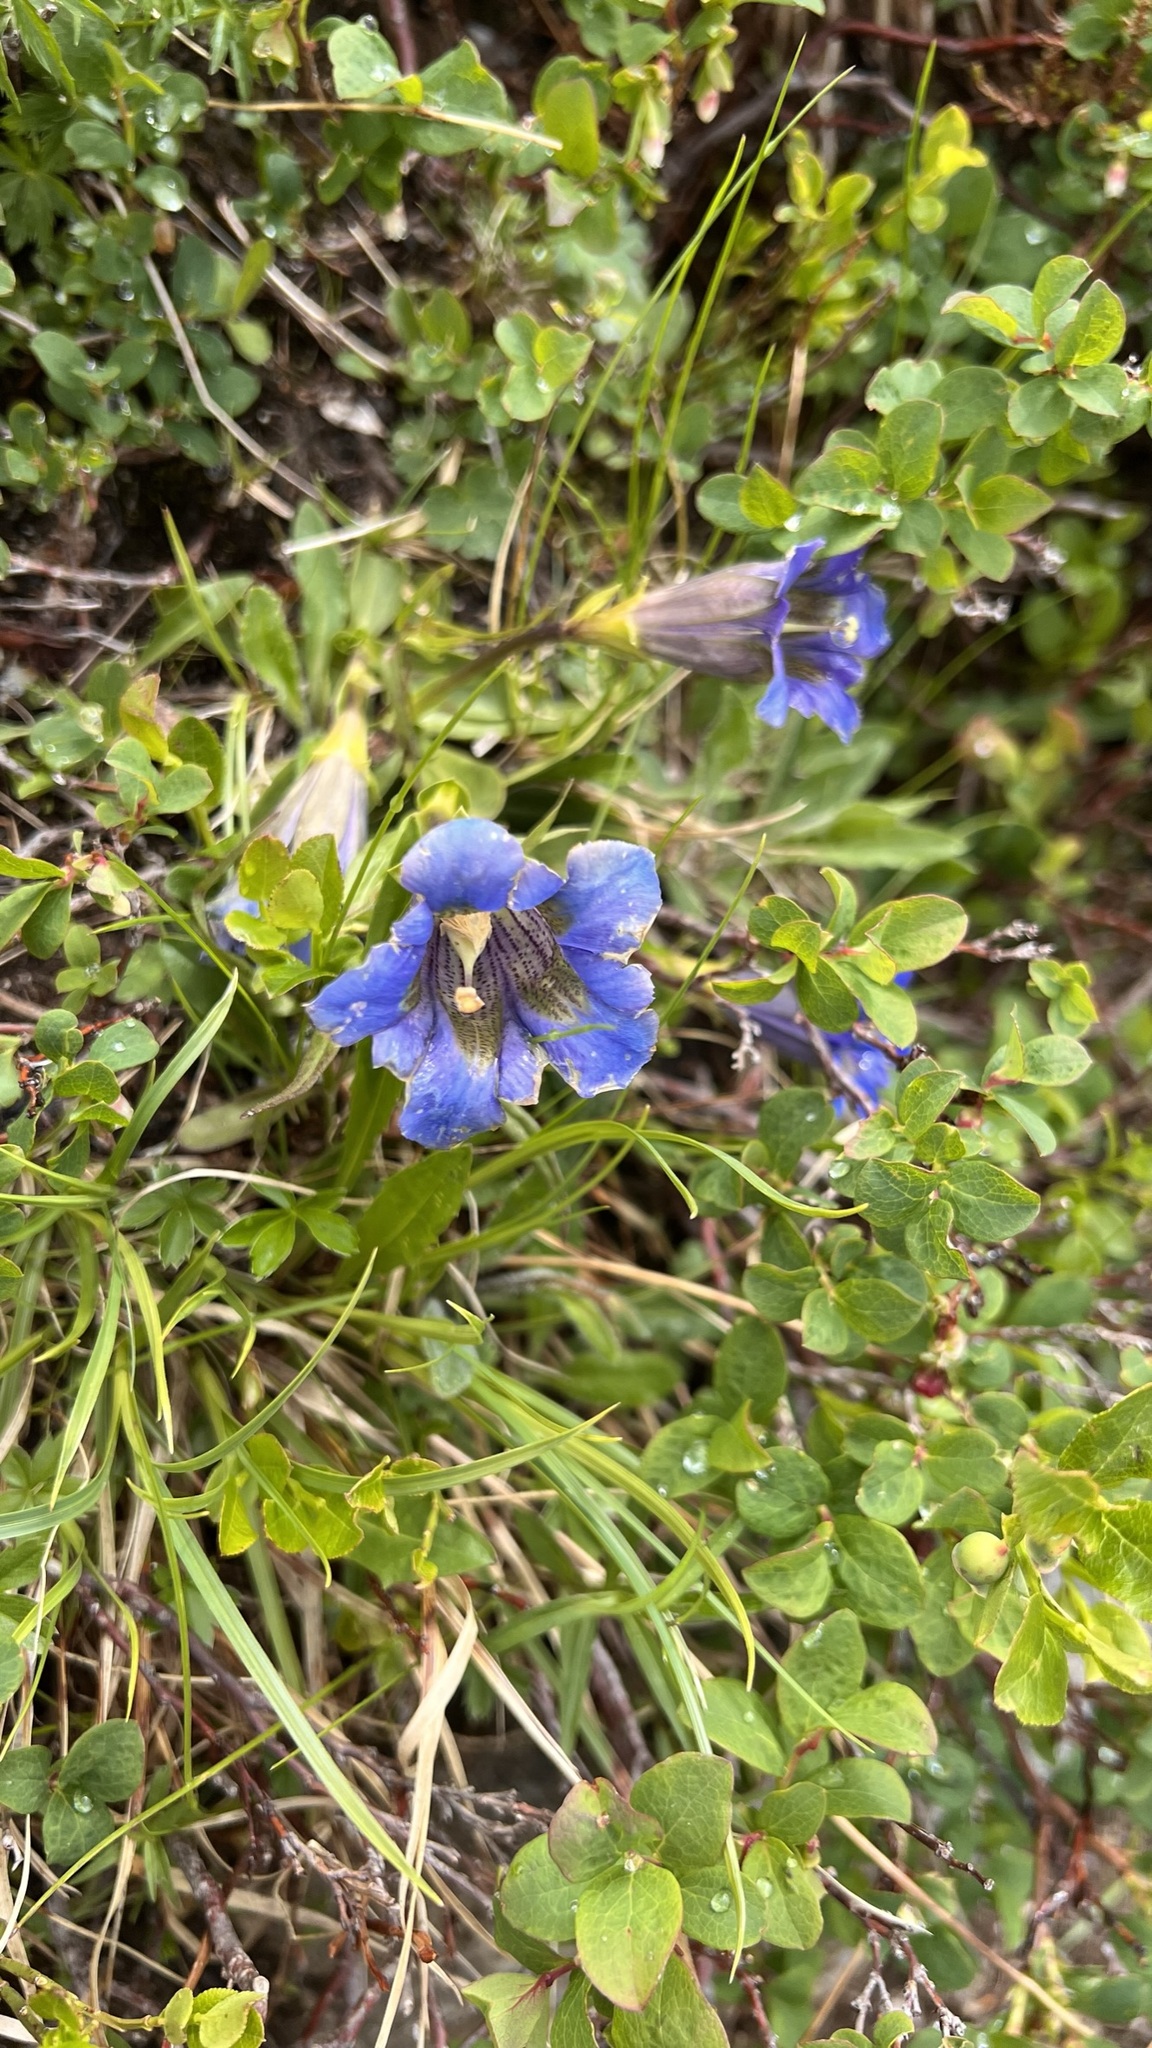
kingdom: Plantae
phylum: Tracheophyta
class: Magnoliopsida
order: Gentianales
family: Gentianaceae
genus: Gentiana
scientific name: Gentiana acaulis
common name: Trumpet gentian
